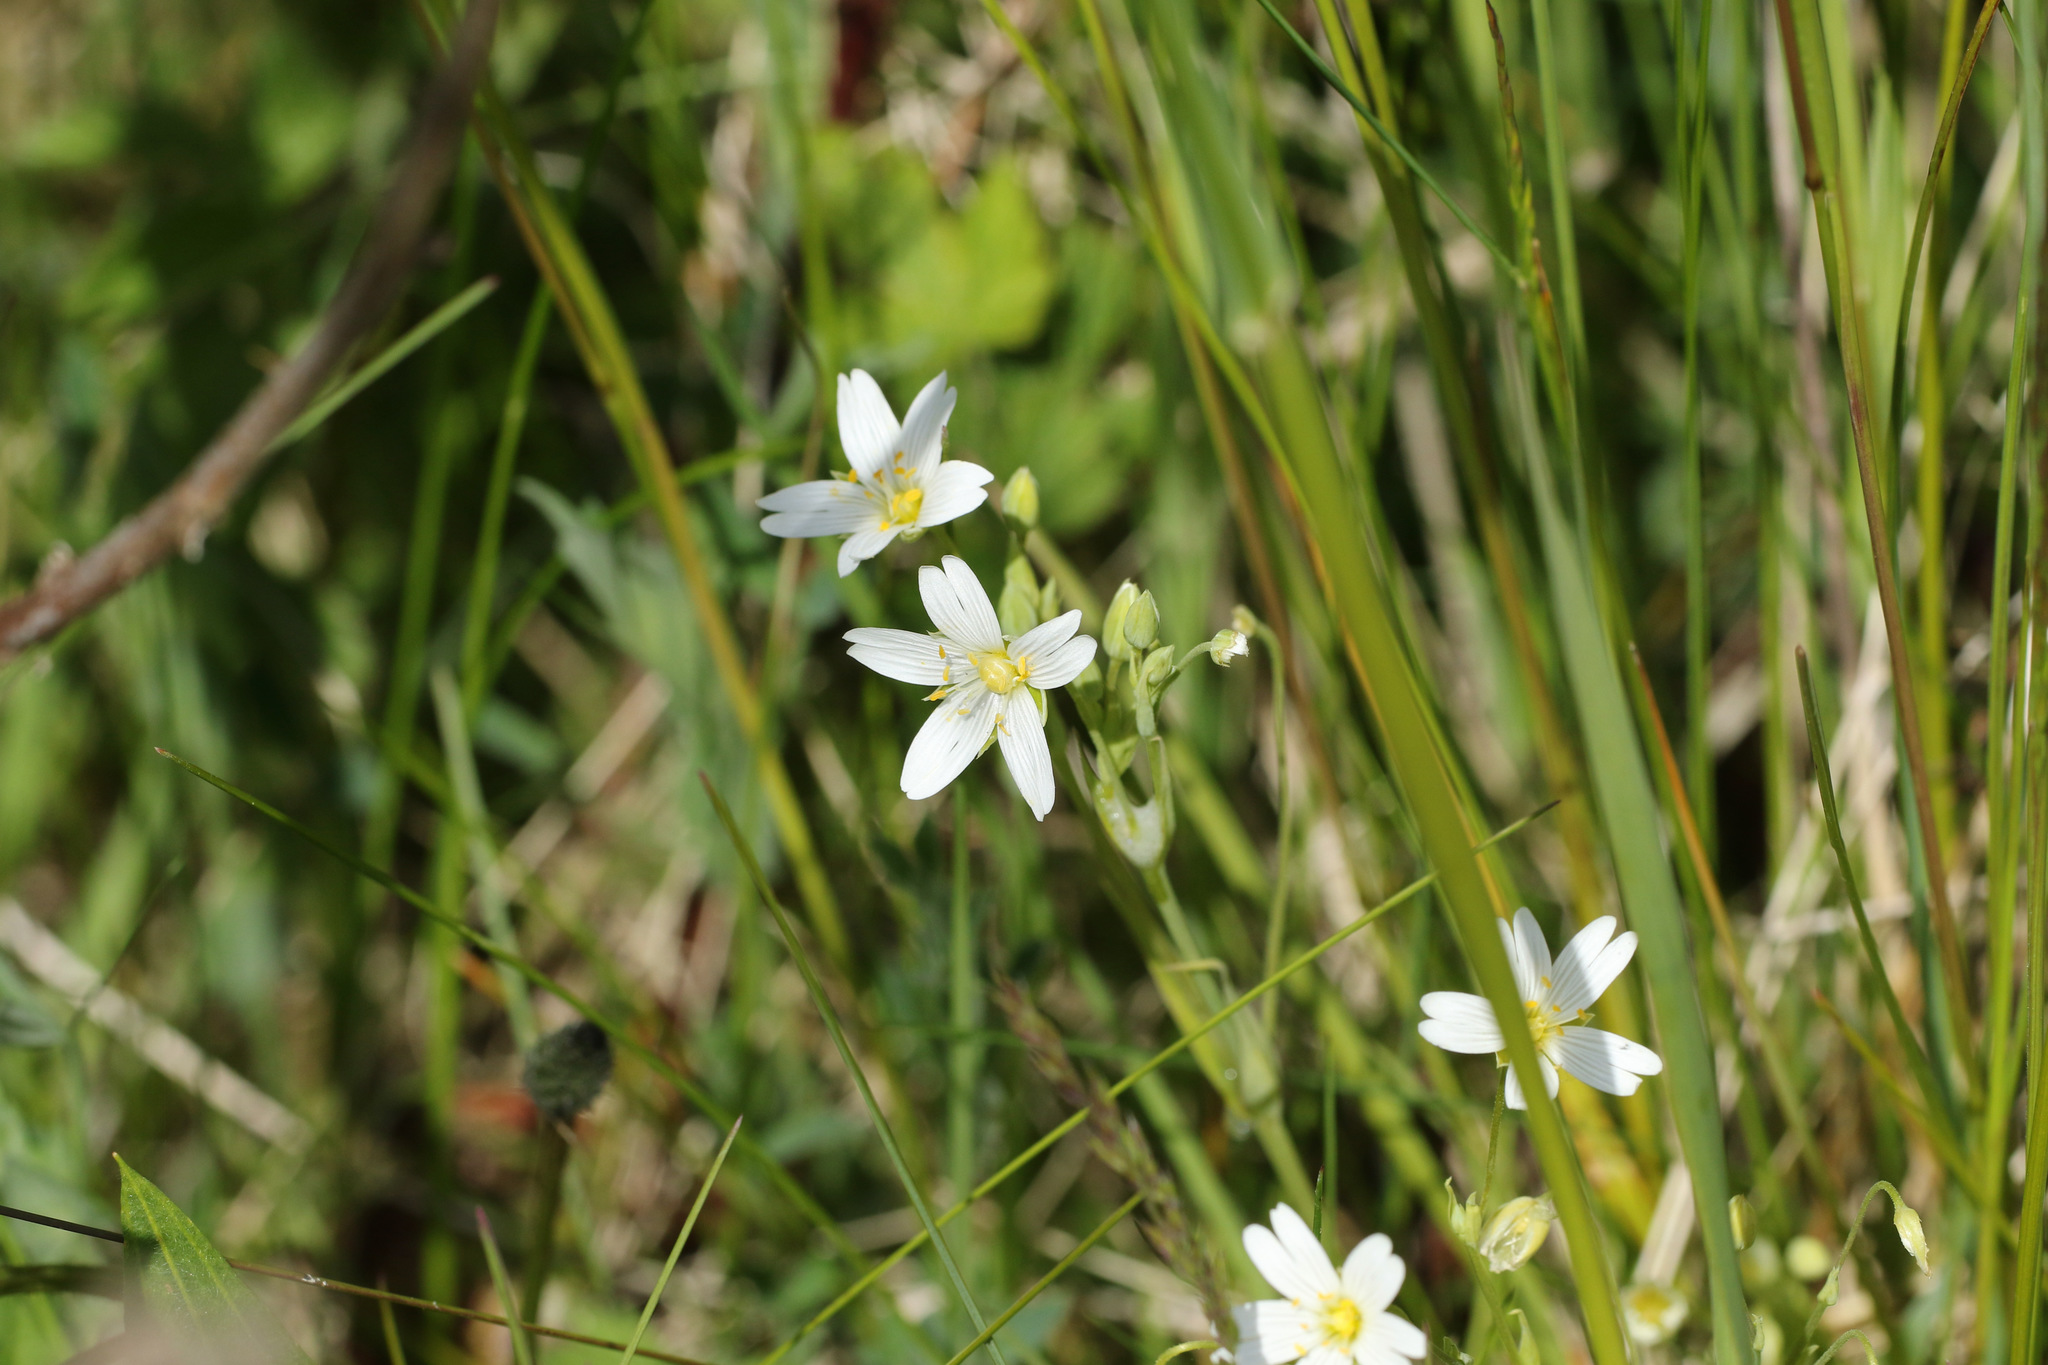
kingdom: Plantae
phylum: Tracheophyta
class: Magnoliopsida
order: Caryophyllales
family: Caryophyllaceae
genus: Rabelera
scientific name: Rabelera holostea
